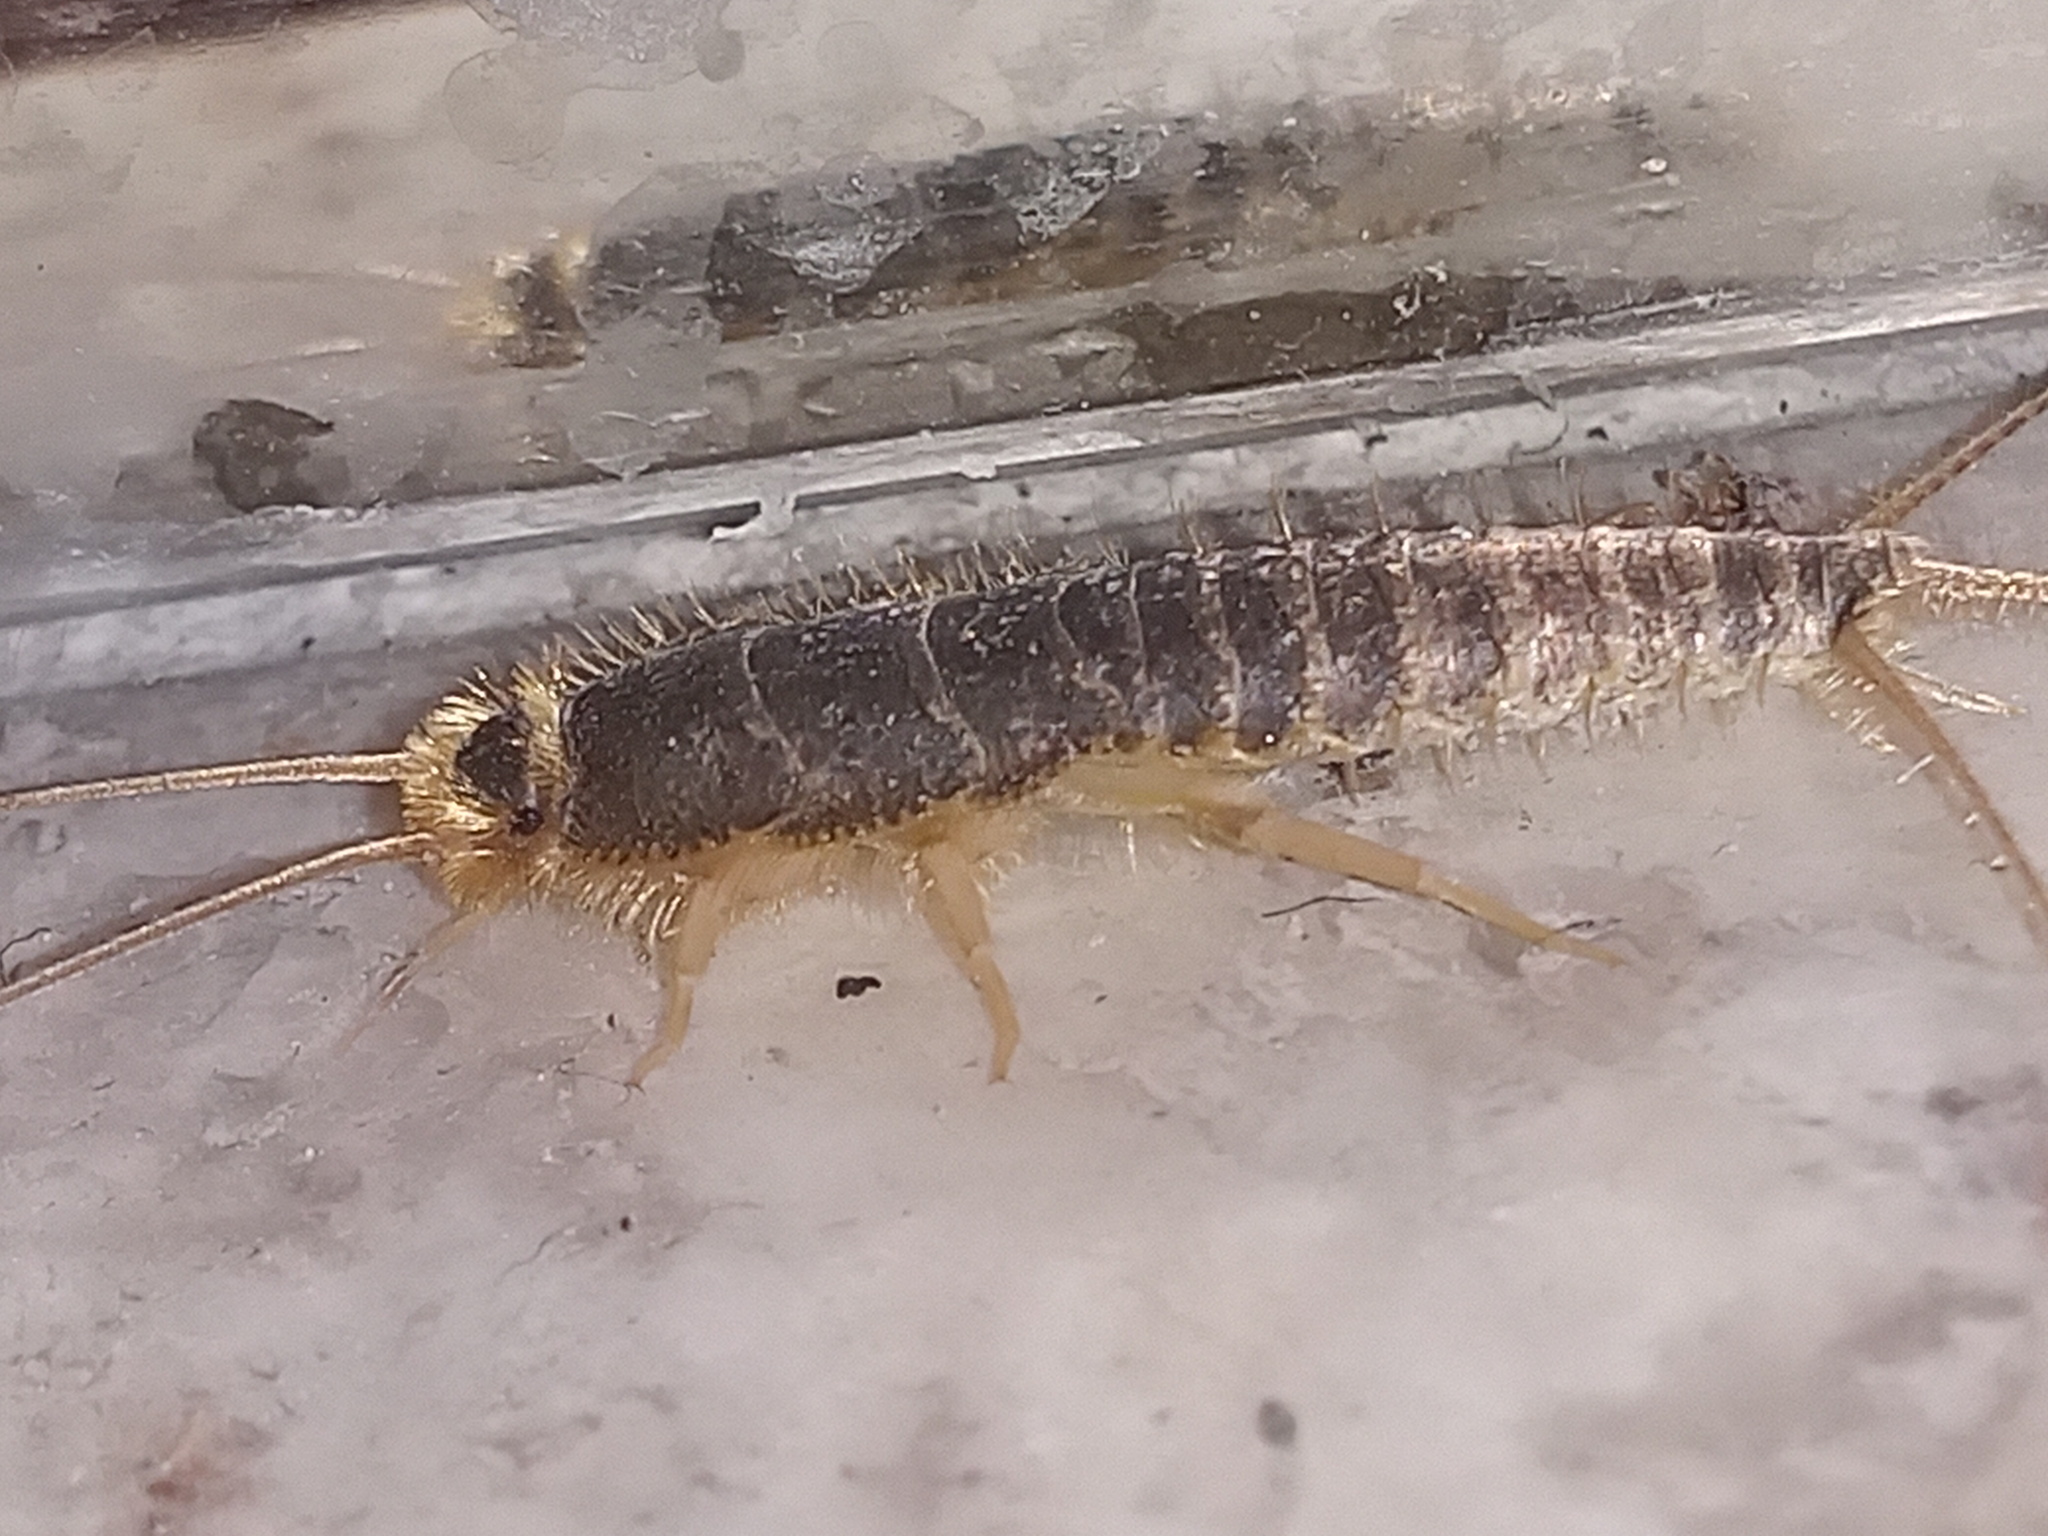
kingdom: Animalia
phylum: Arthropoda
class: Insecta
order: Zygentoma
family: Lepismatidae
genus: Ctenolepisma
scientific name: Ctenolepisma longicaudatum
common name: Silverfish
